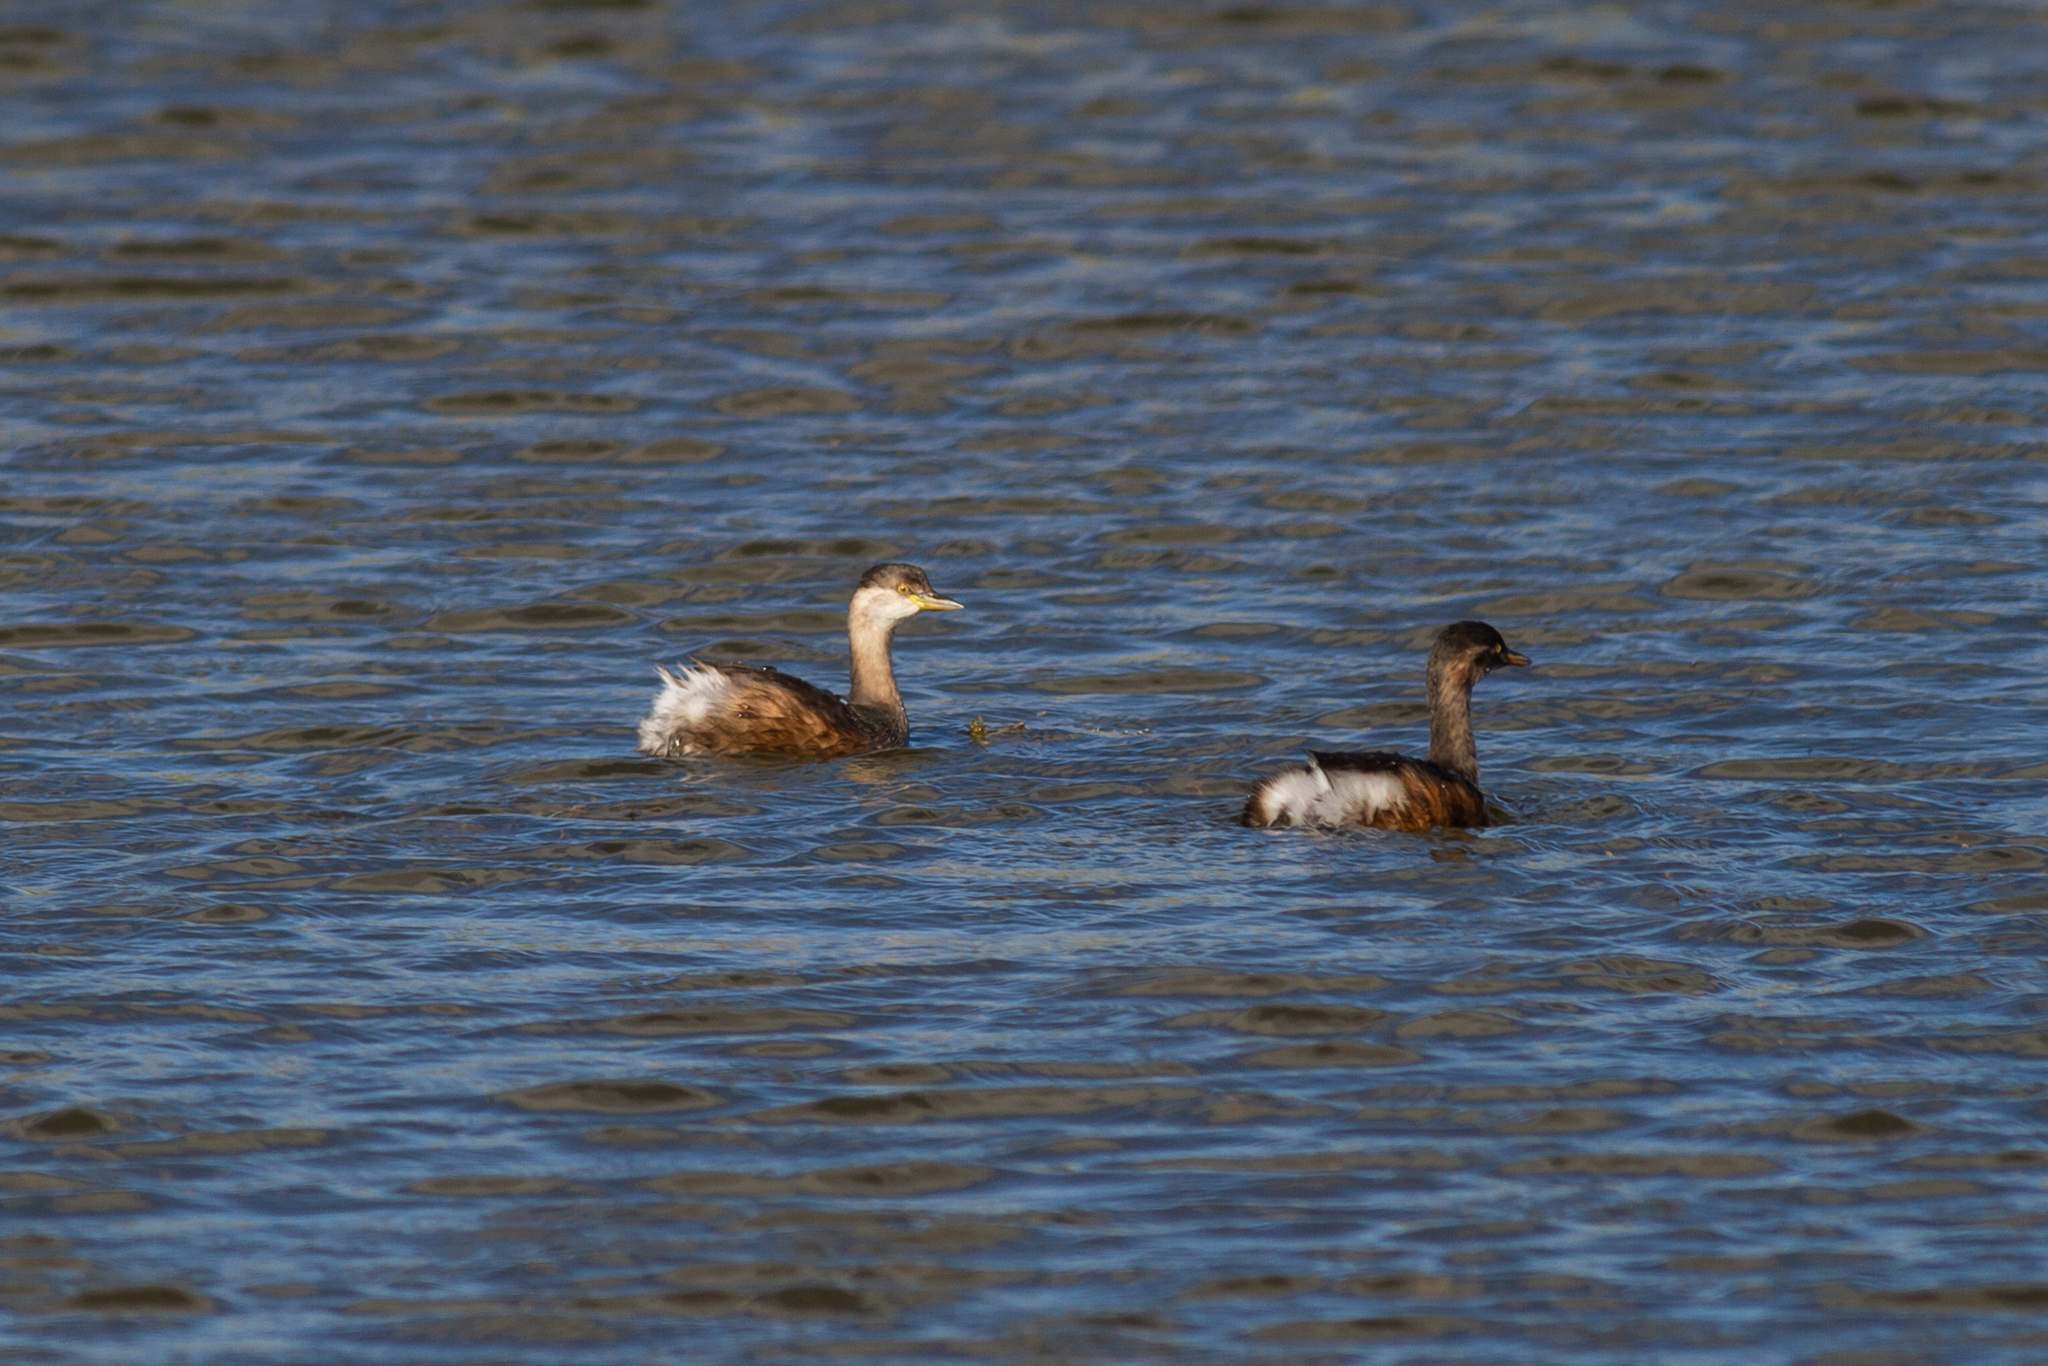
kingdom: Animalia
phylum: Chordata
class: Aves
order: Podicipediformes
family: Podicipedidae
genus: Tachybaptus
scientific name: Tachybaptus novaehollandiae
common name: Australasian grebe
